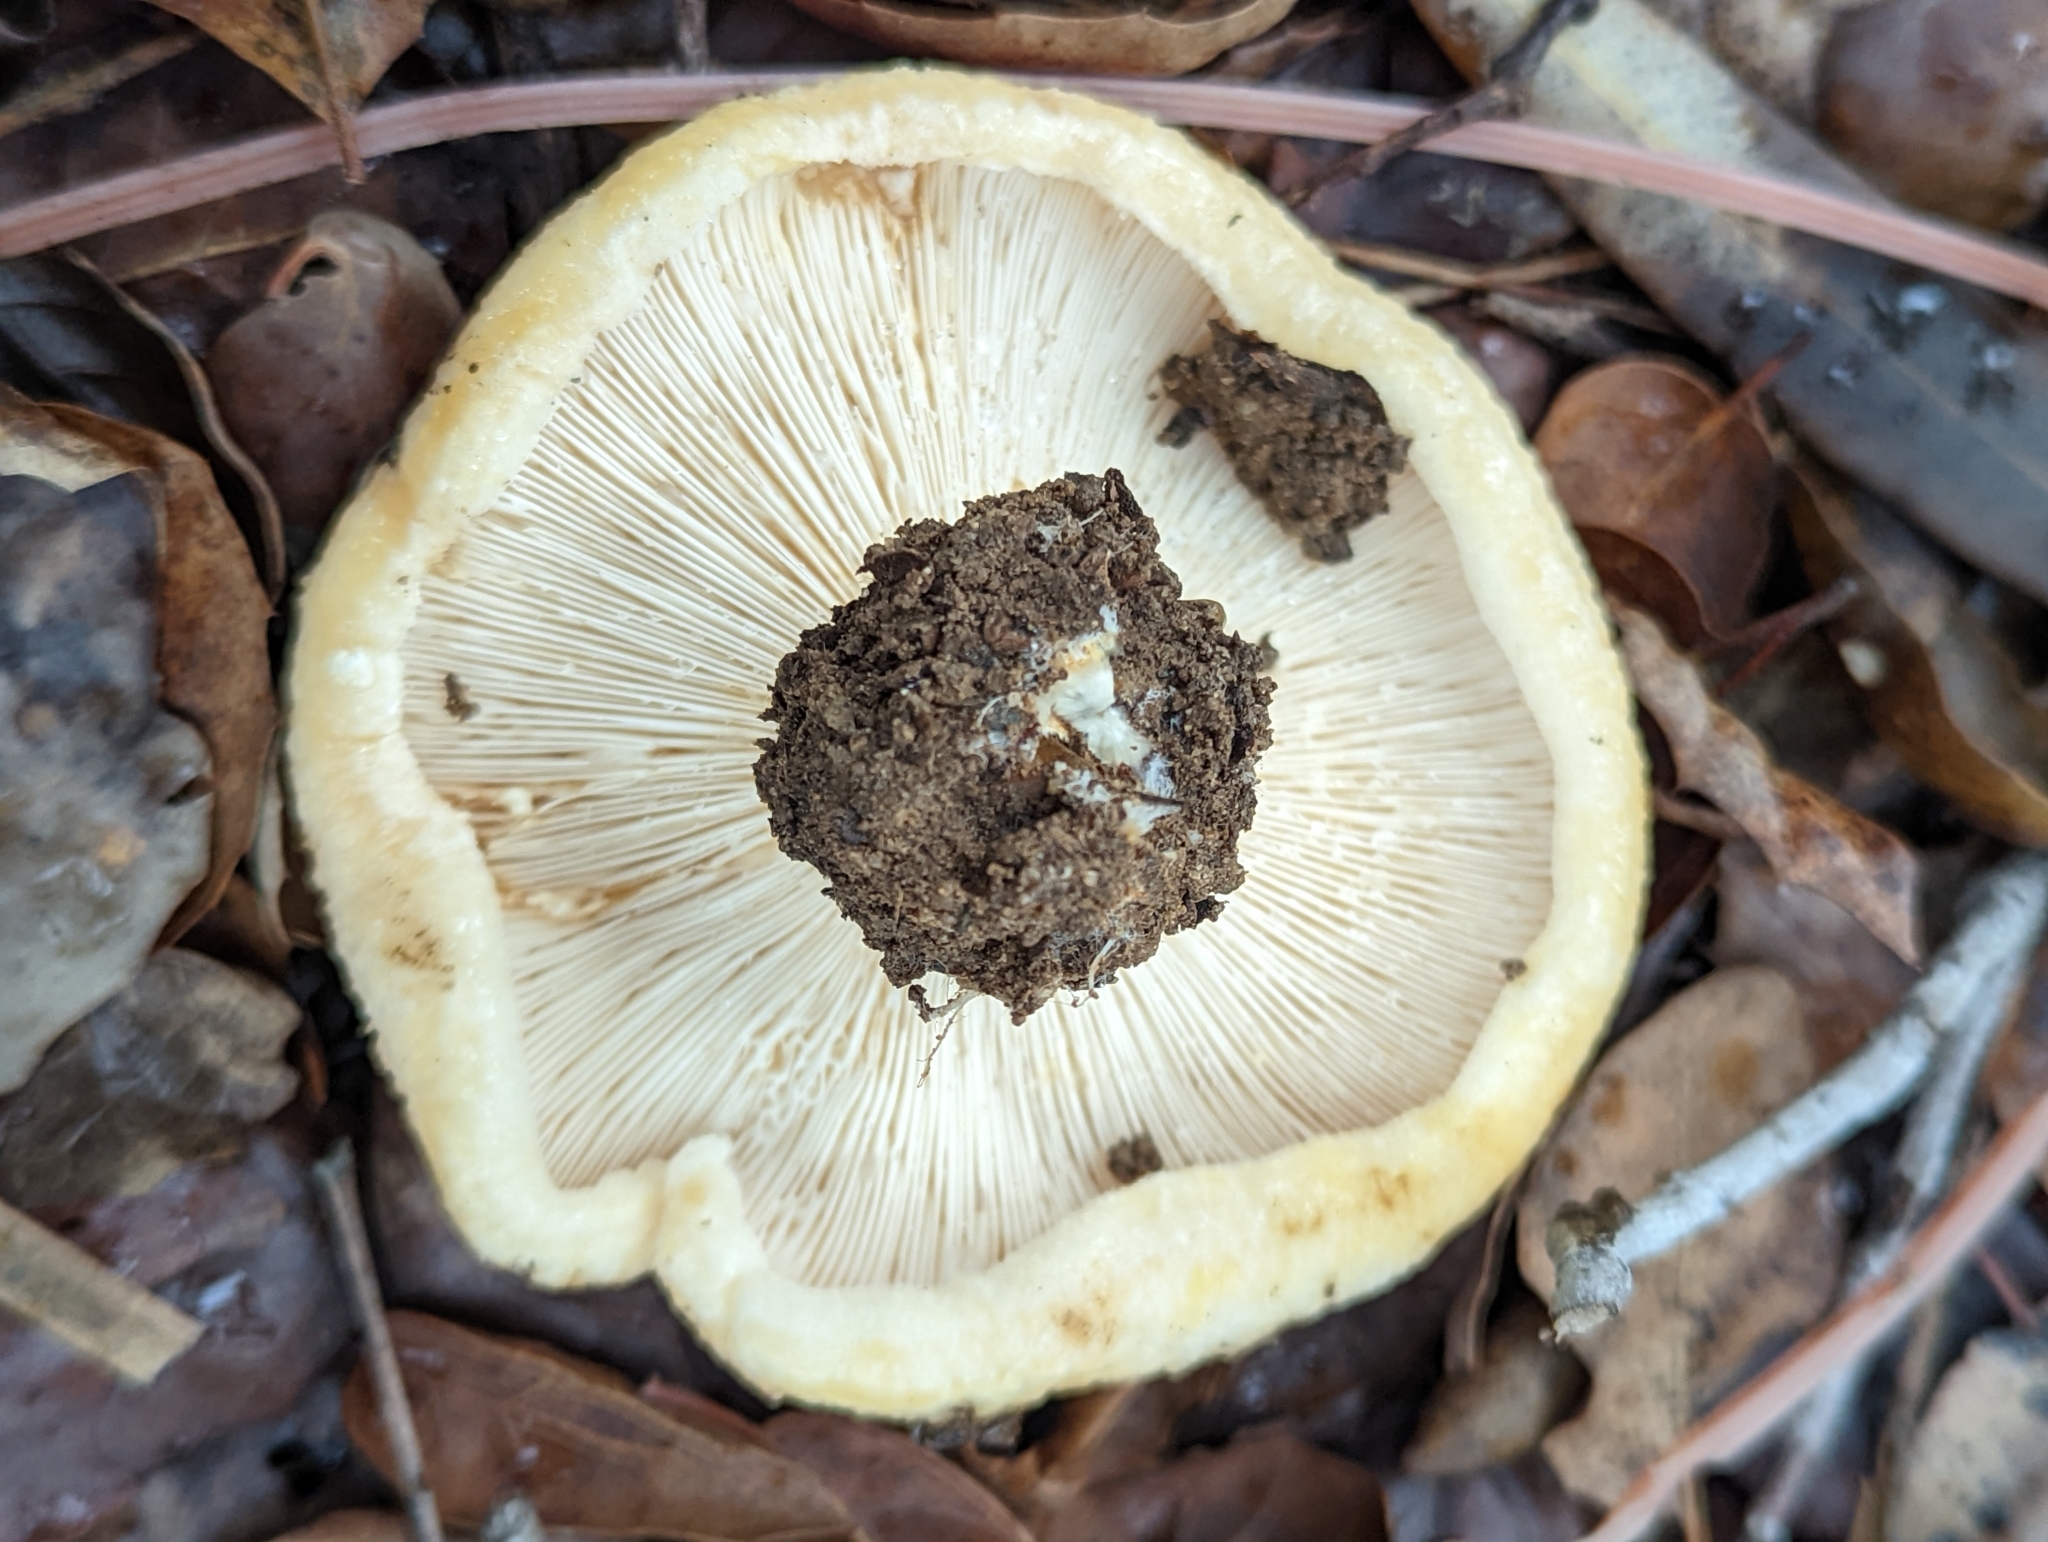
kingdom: Fungi
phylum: Basidiomycota
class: Agaricomycetes
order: Russulales
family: Russulaceae
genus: Lactarius
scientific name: Lactarius alnicola
